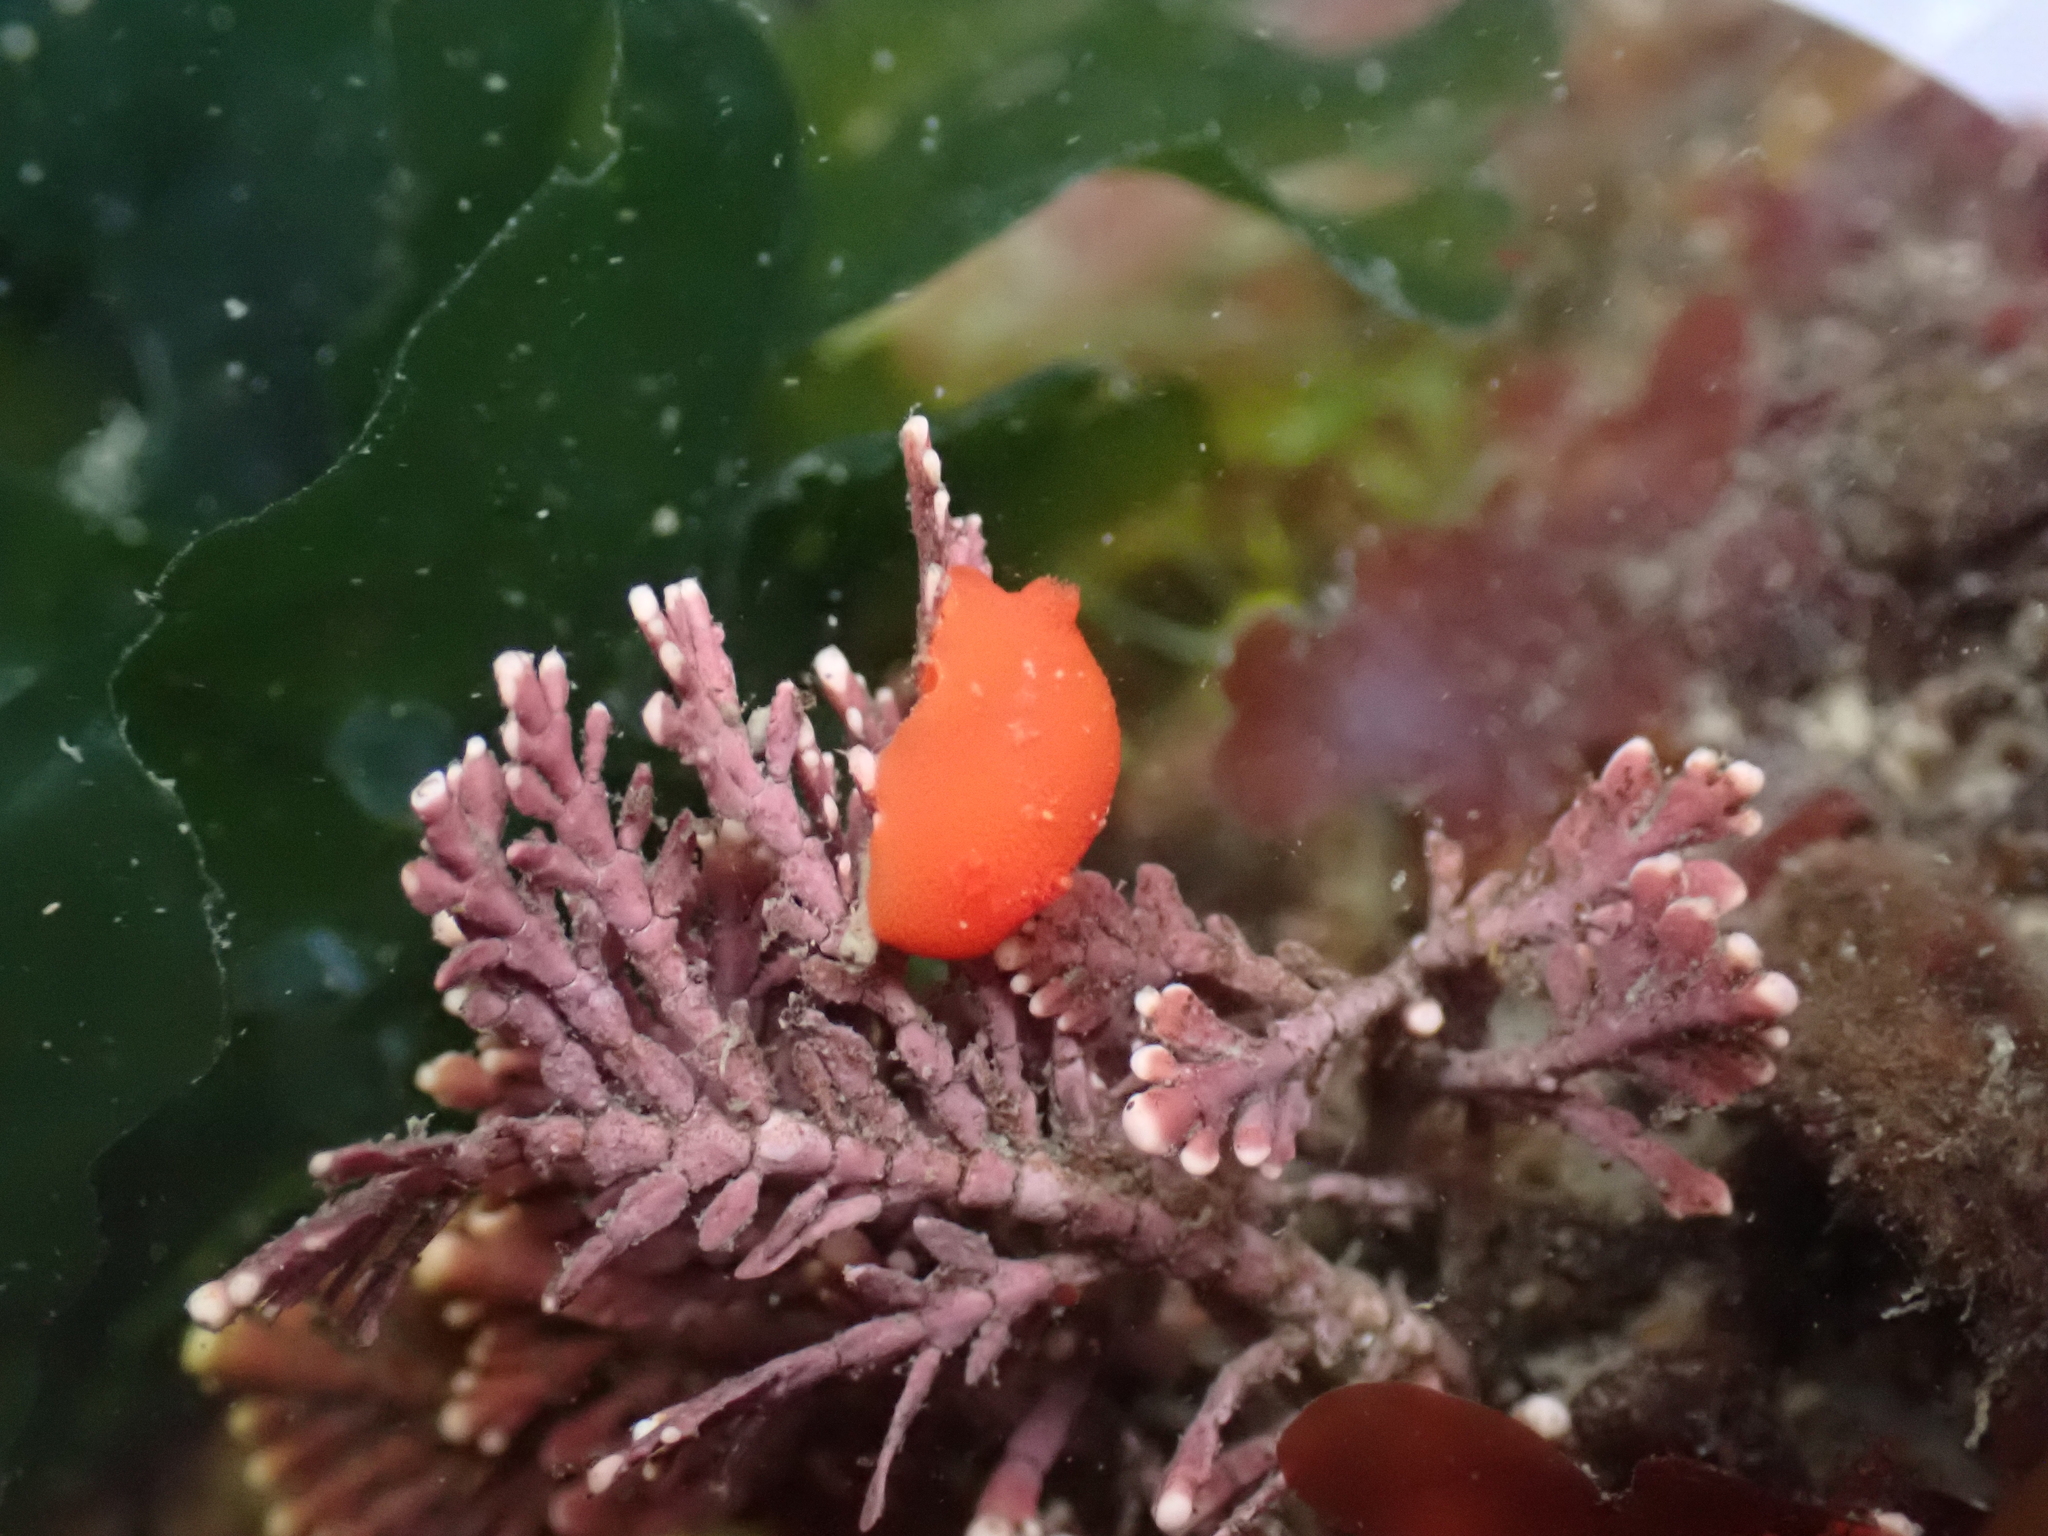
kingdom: Animalia
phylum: Mollusca
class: Gastropoda
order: Nudibranchia
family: Discodorididae
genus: Rostanga
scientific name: Rostanga pulchra
